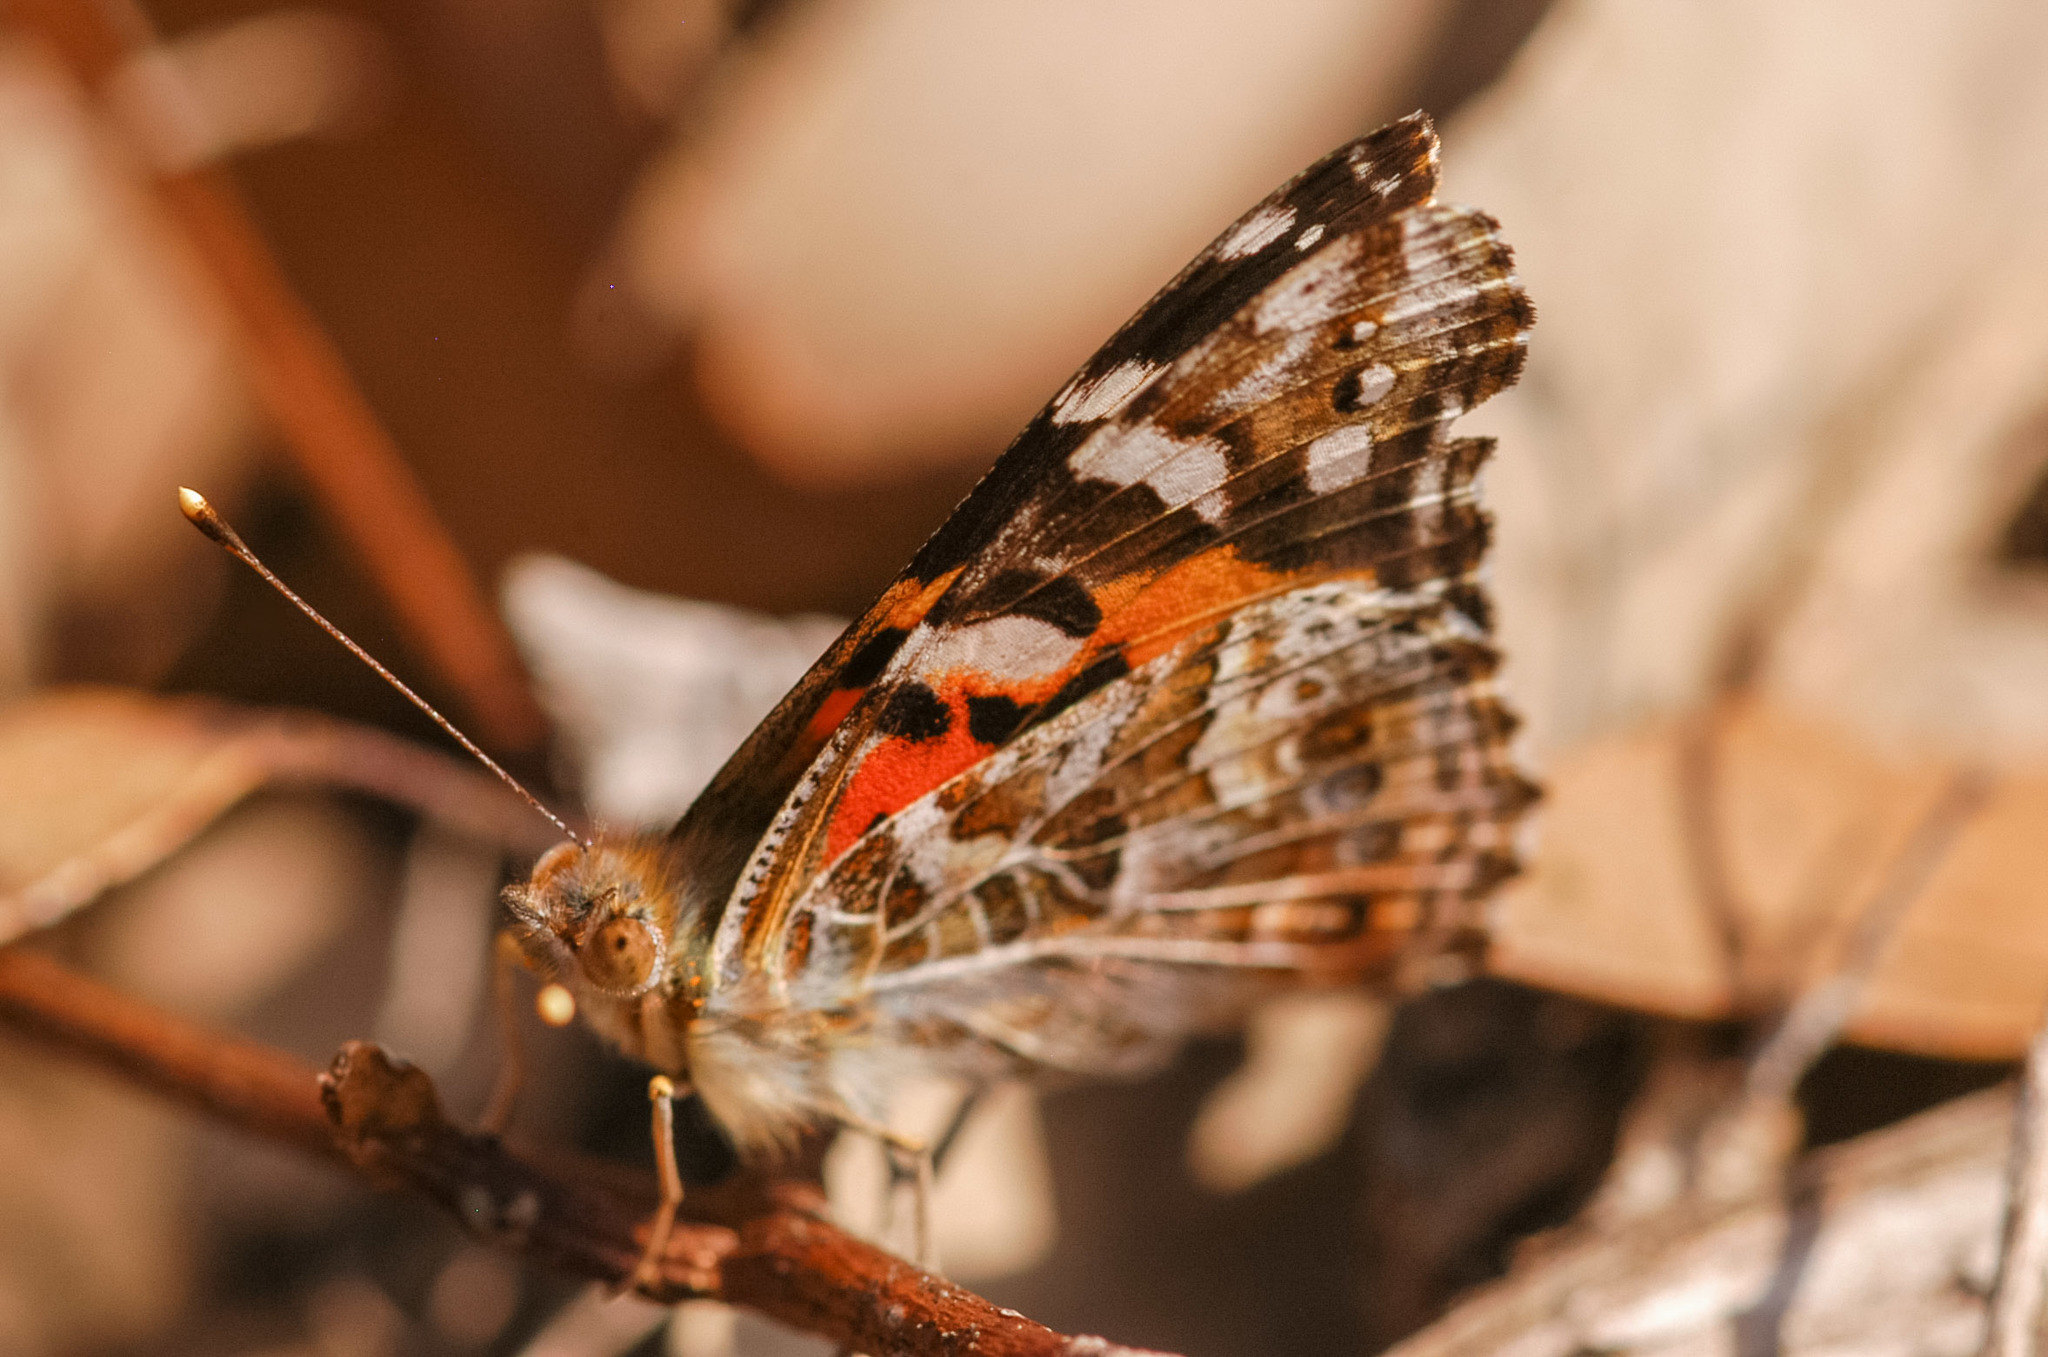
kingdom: Animalia
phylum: Arthropoda
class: Insecta
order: Lepidoptera
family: Nymphalidae
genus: Vanessa
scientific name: Vanessa kershawi
